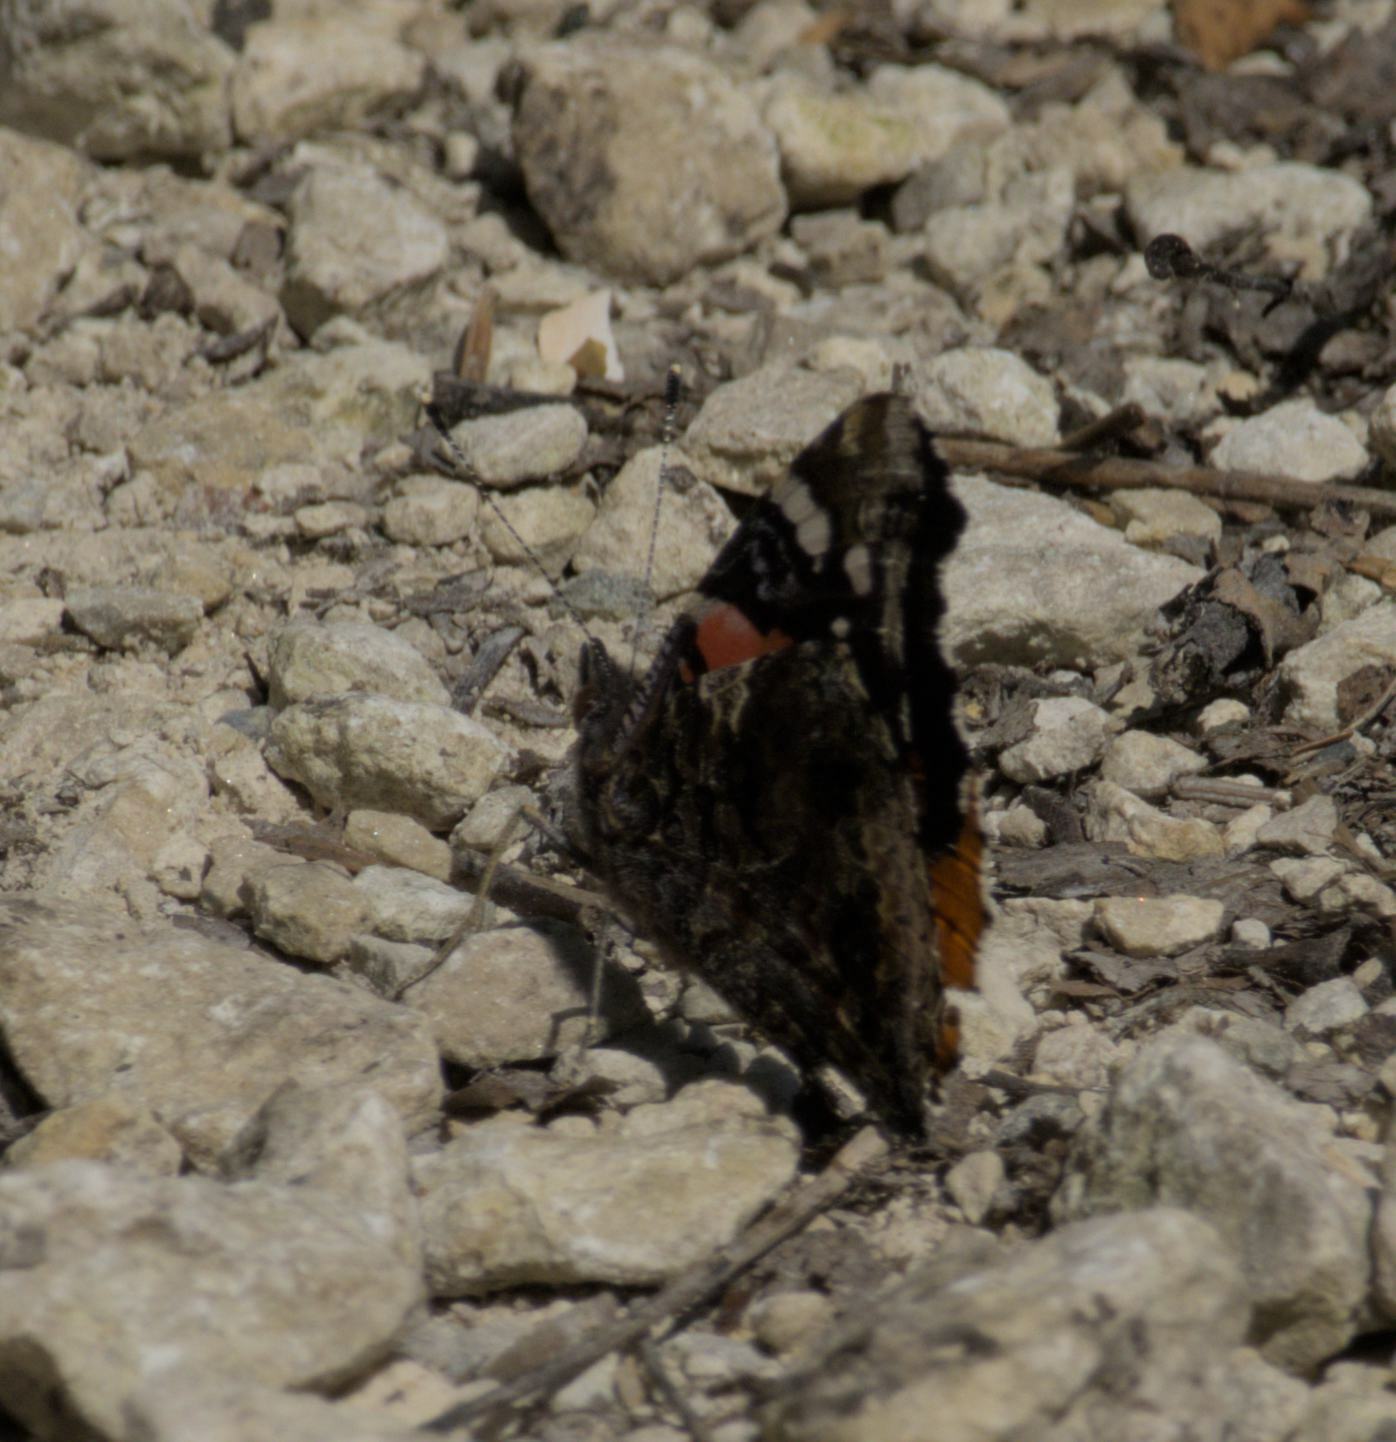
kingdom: Animalia
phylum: Arthropoda
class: Insecta
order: Lepidoptera
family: Nymphalidae
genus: Vanessa
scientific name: Vanessa atalanta
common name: Red admiral
